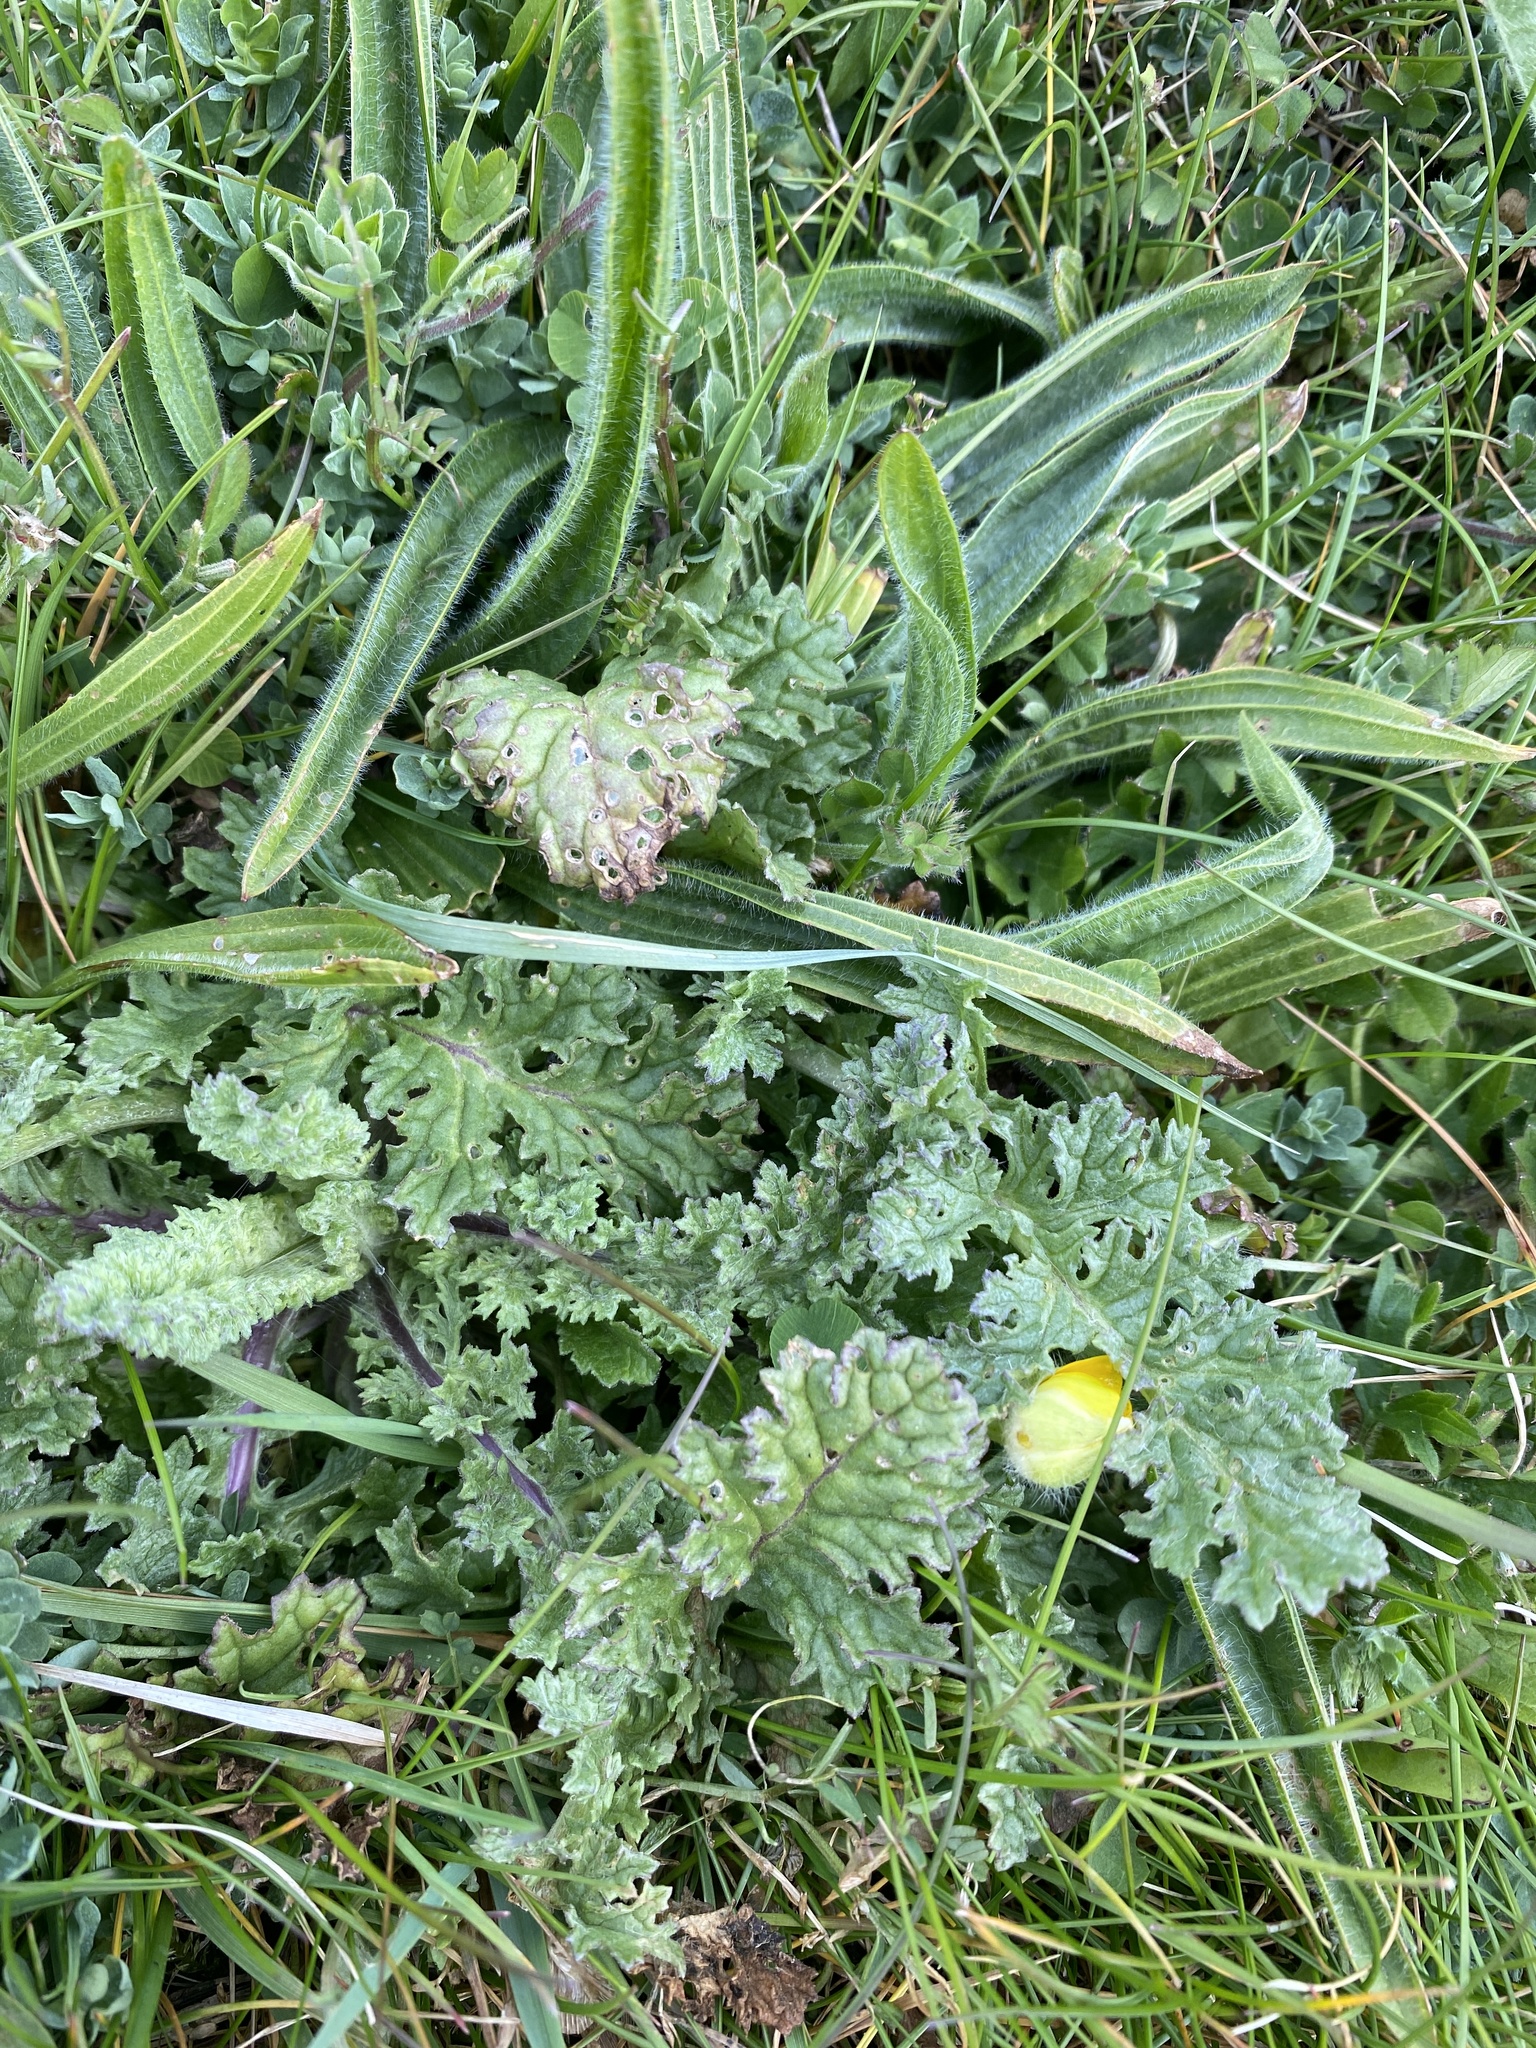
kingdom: Plantae
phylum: Tracheophyta
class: Magnoliopsida
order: Asterales
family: Asteraceae
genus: Jacobaea
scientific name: Jacobaea vulgaris
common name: Stinking willie
